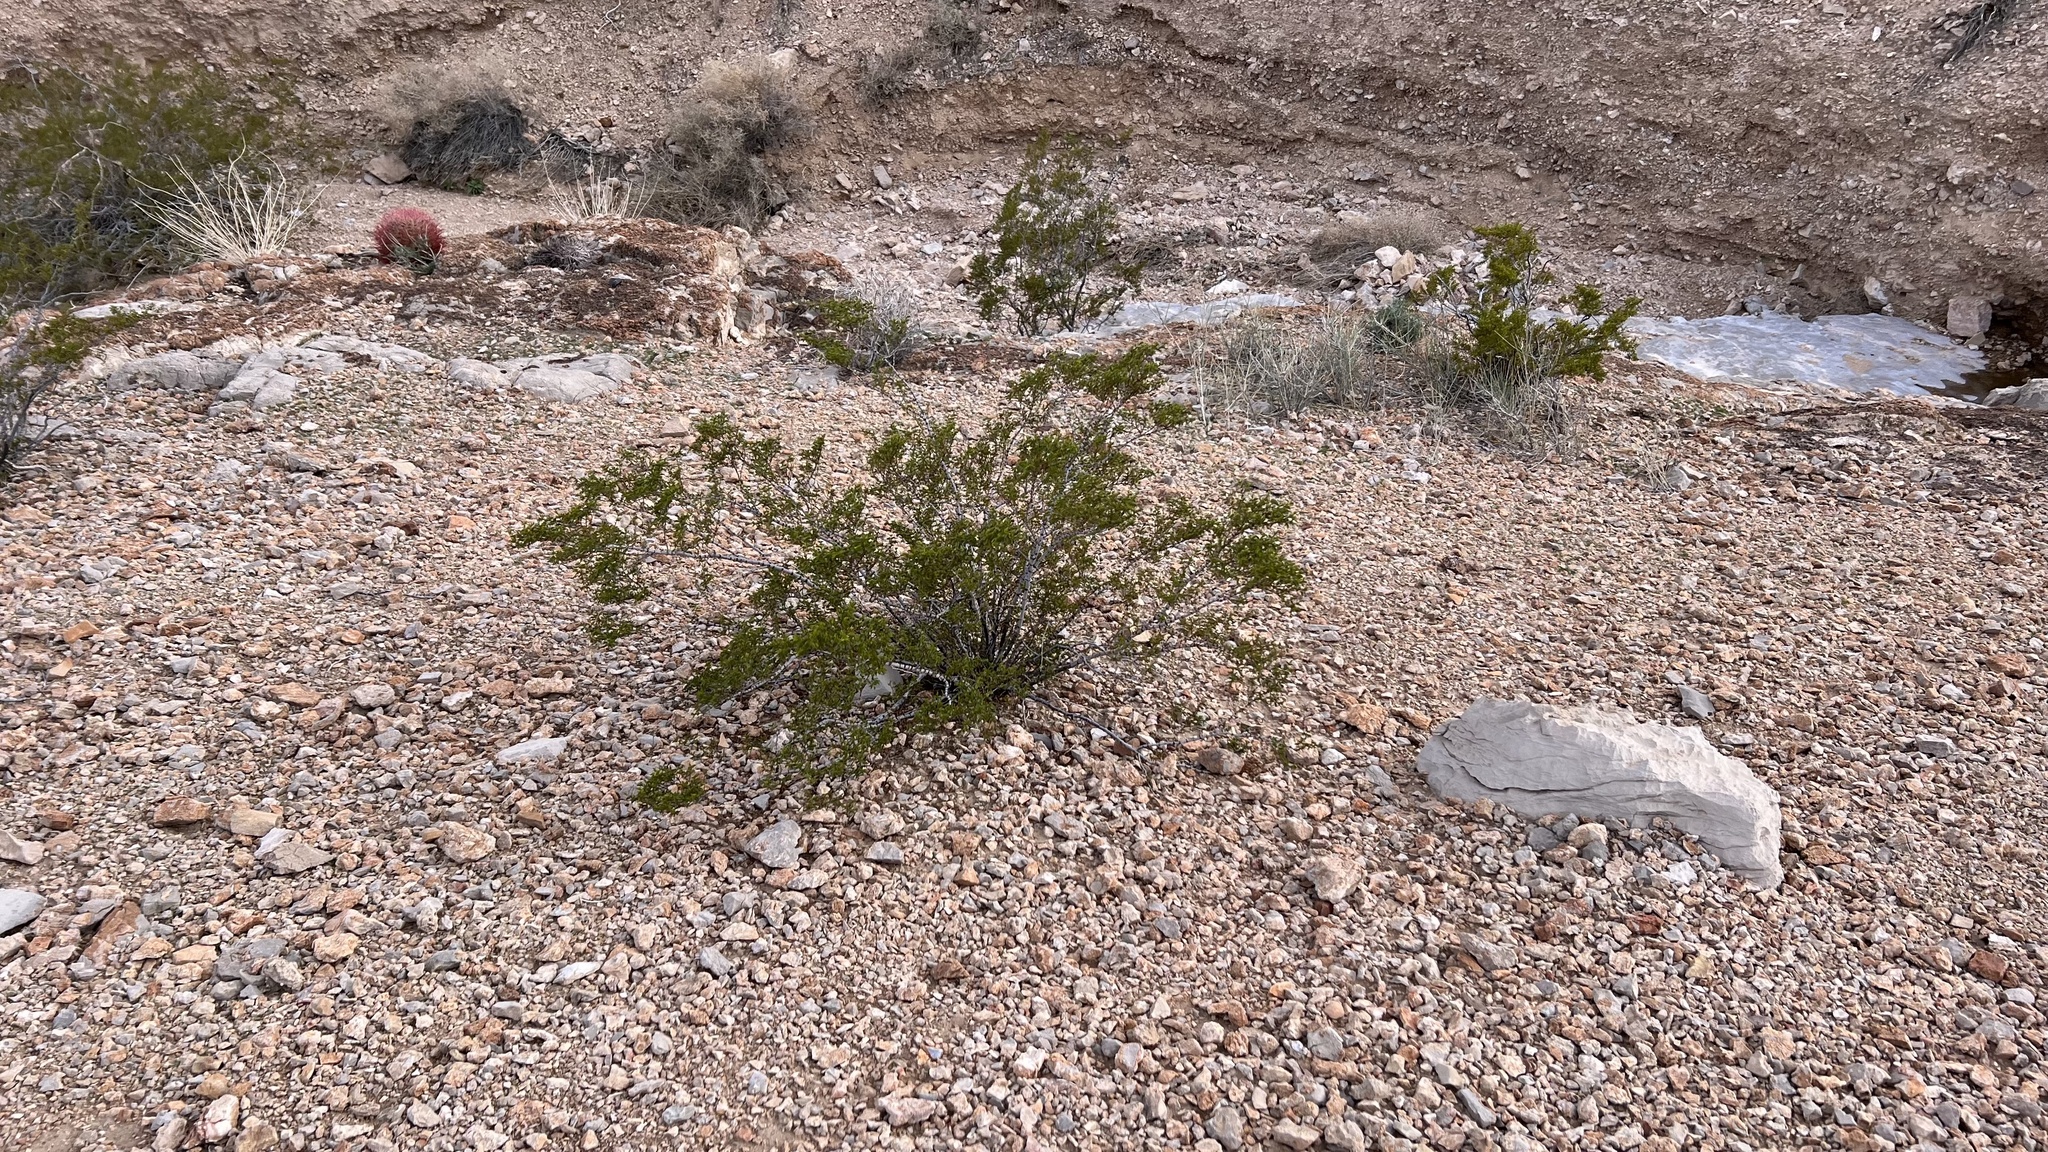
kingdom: Plantae
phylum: Tracheophyta
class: Magnoliopsida
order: Zygophyllales
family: Zygophyllaceae
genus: Larrea
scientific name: Larrea tridentata
